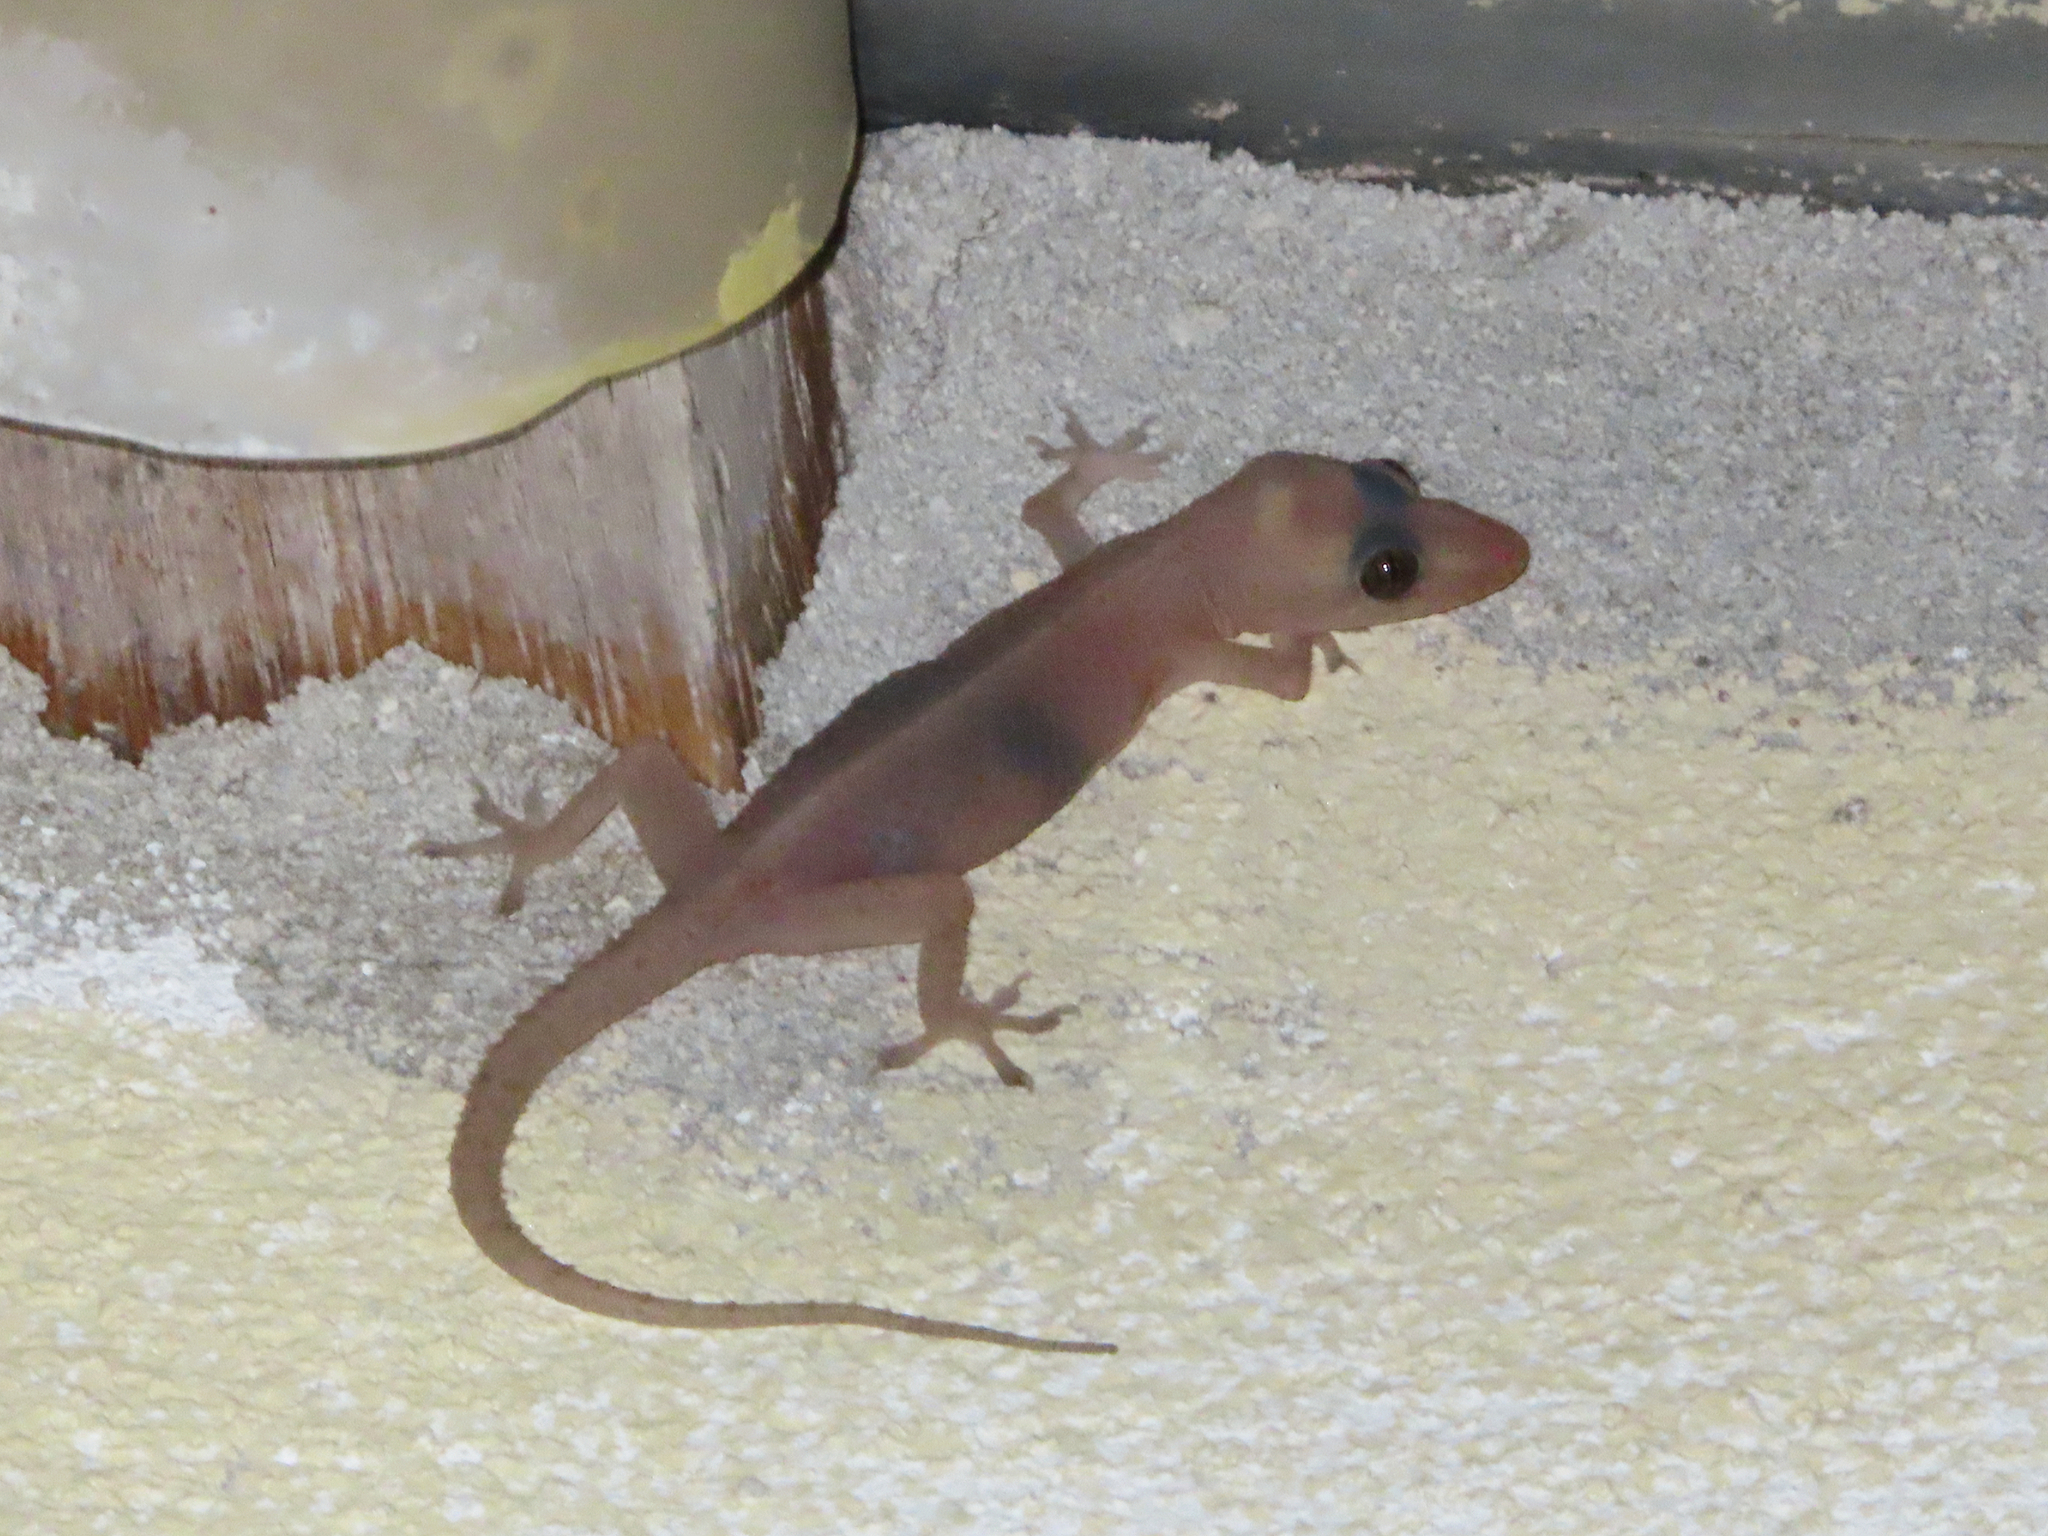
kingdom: Animalia
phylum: Chordata
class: Squamata
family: Gekkonidae
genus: Hemidactylus
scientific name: Hemidactylus frenatus
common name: Common house gecko
